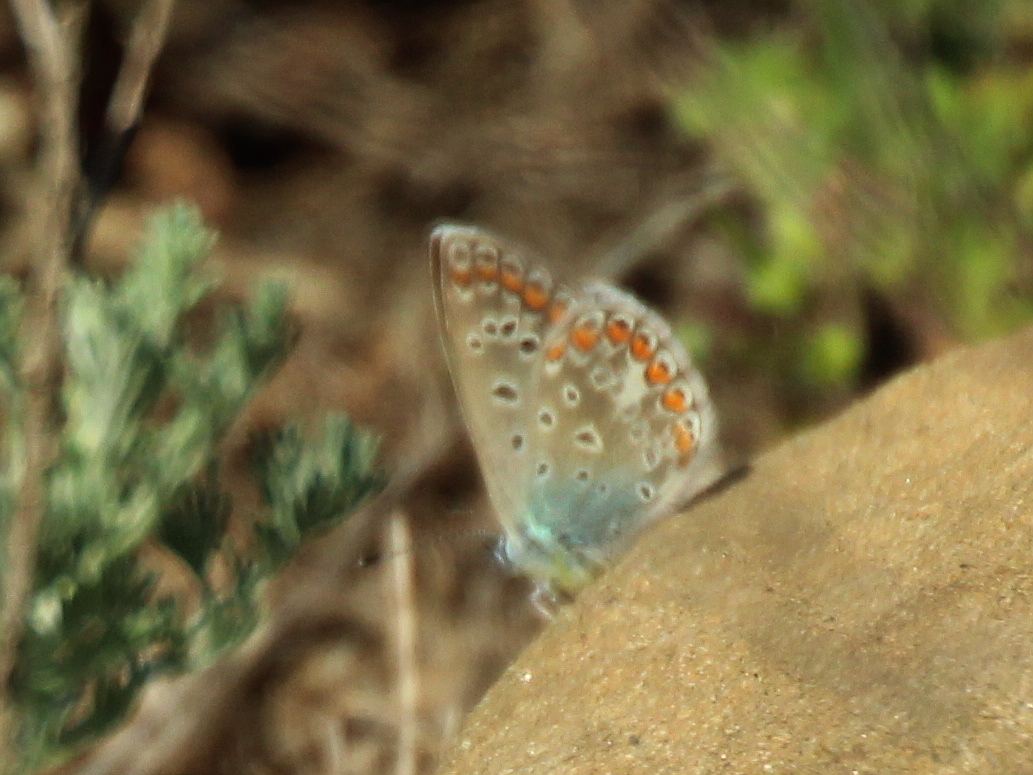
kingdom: Animalia
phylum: Arthropoda
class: Insecta
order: Lepidoptera
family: Lycaenidae
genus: Polyommatus
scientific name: Polyommatus icarus
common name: Common blue
